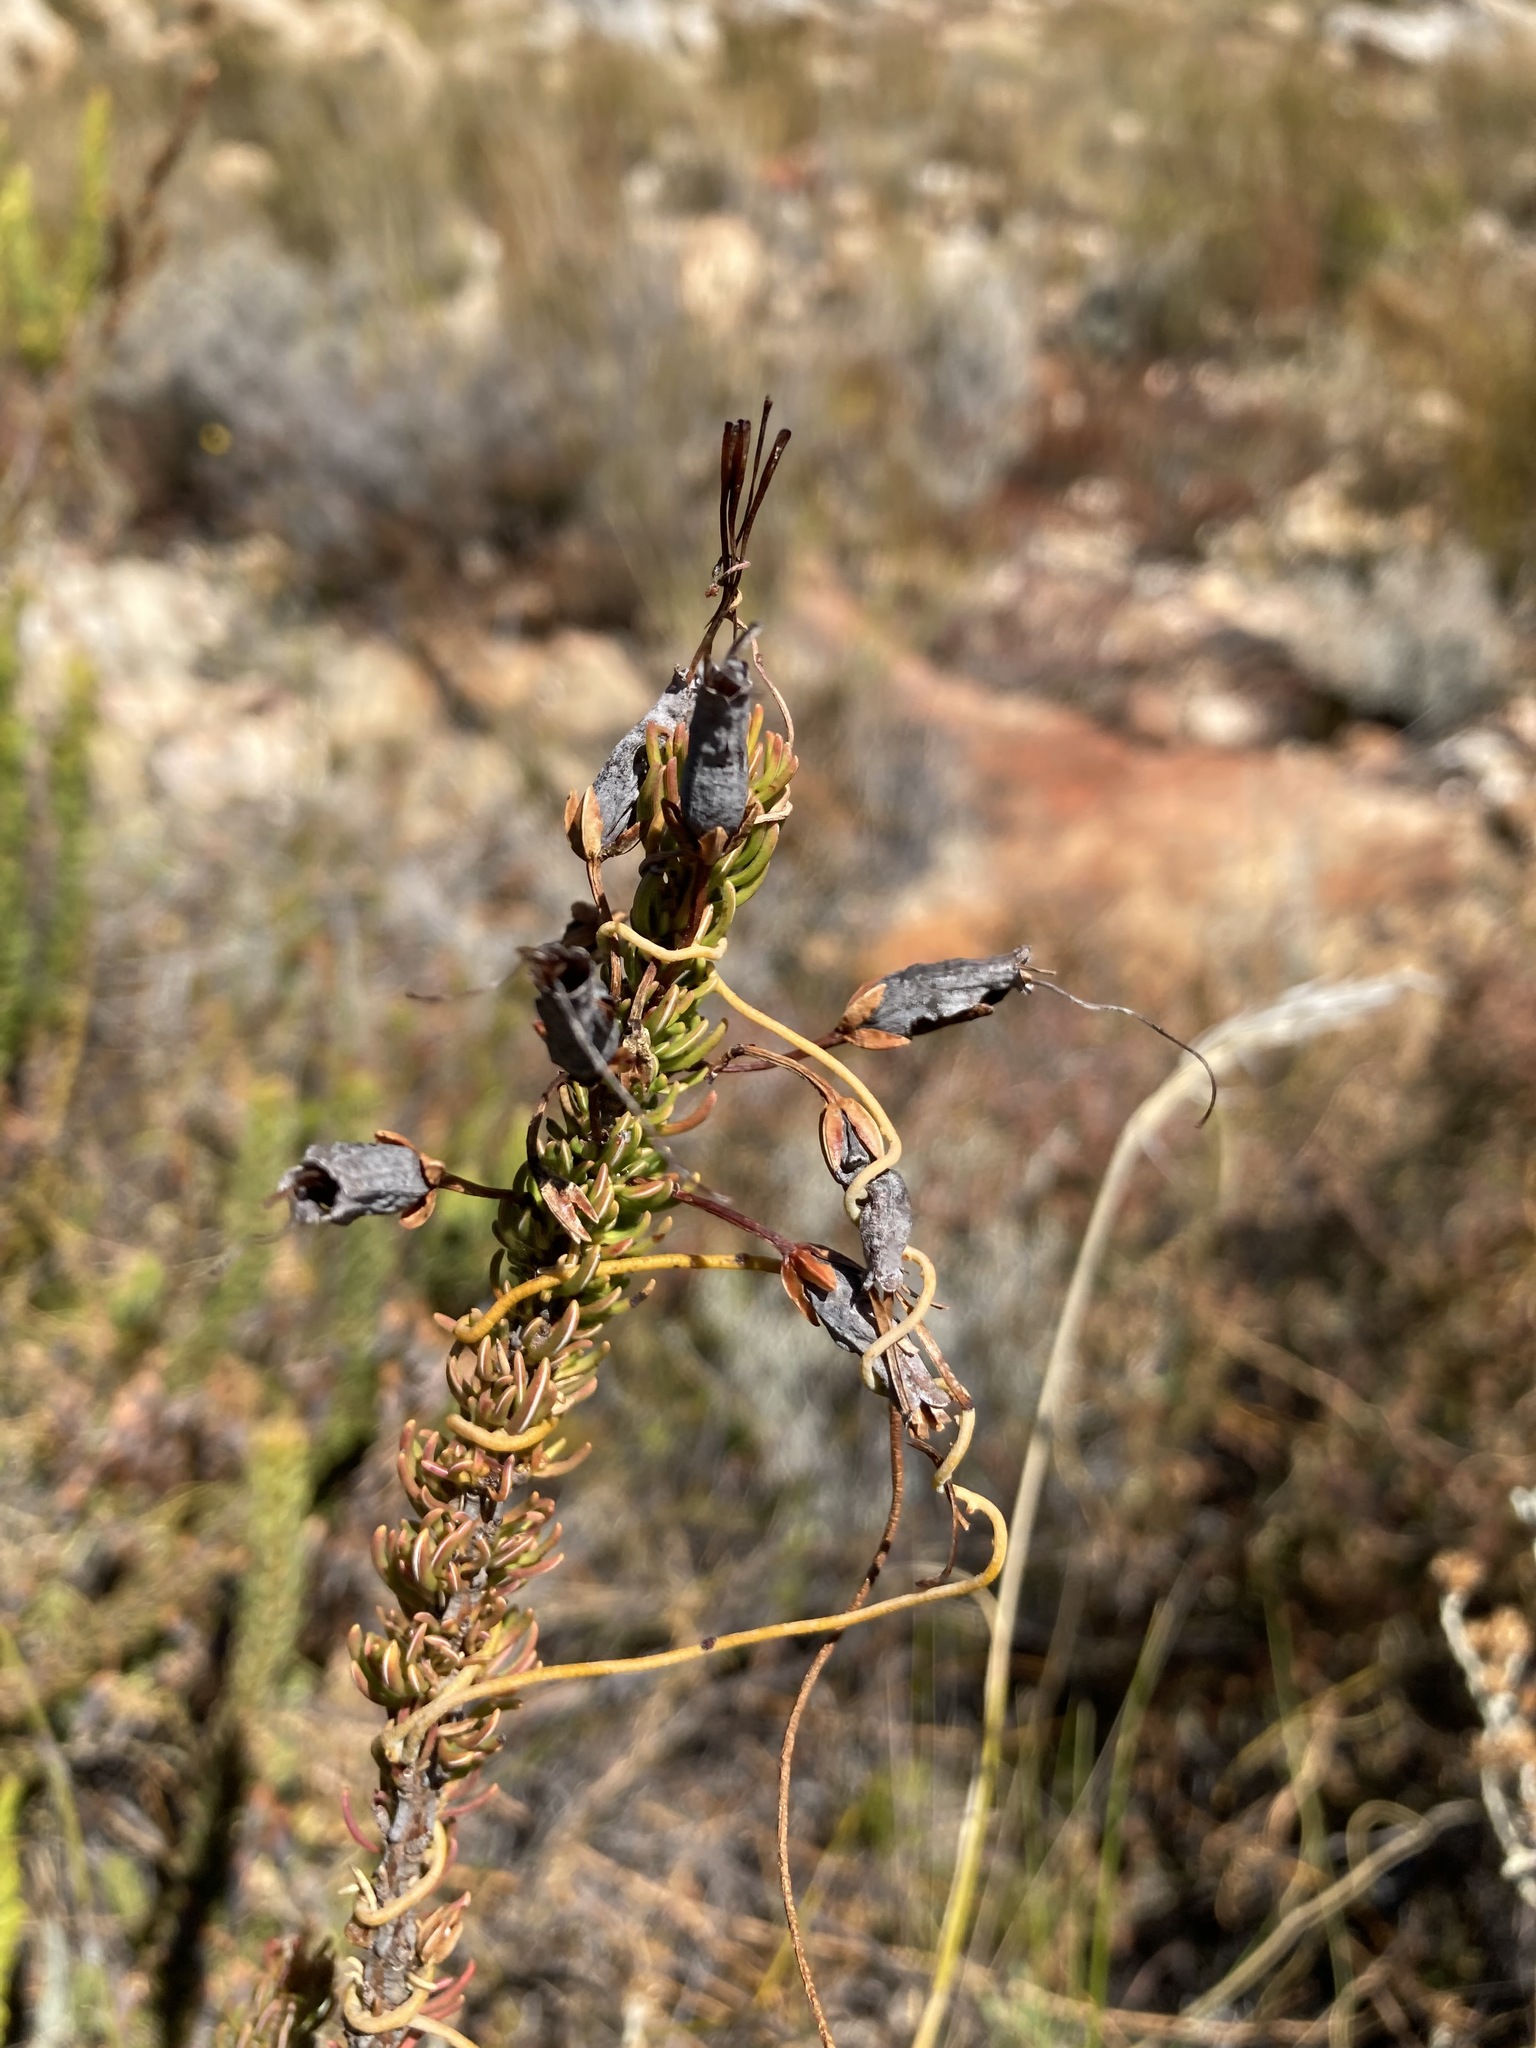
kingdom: Plantae
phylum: Tracheophyta
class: Magnoliopsida
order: Ericales
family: Ericaceae
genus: Erica
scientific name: Erica plukenetii
